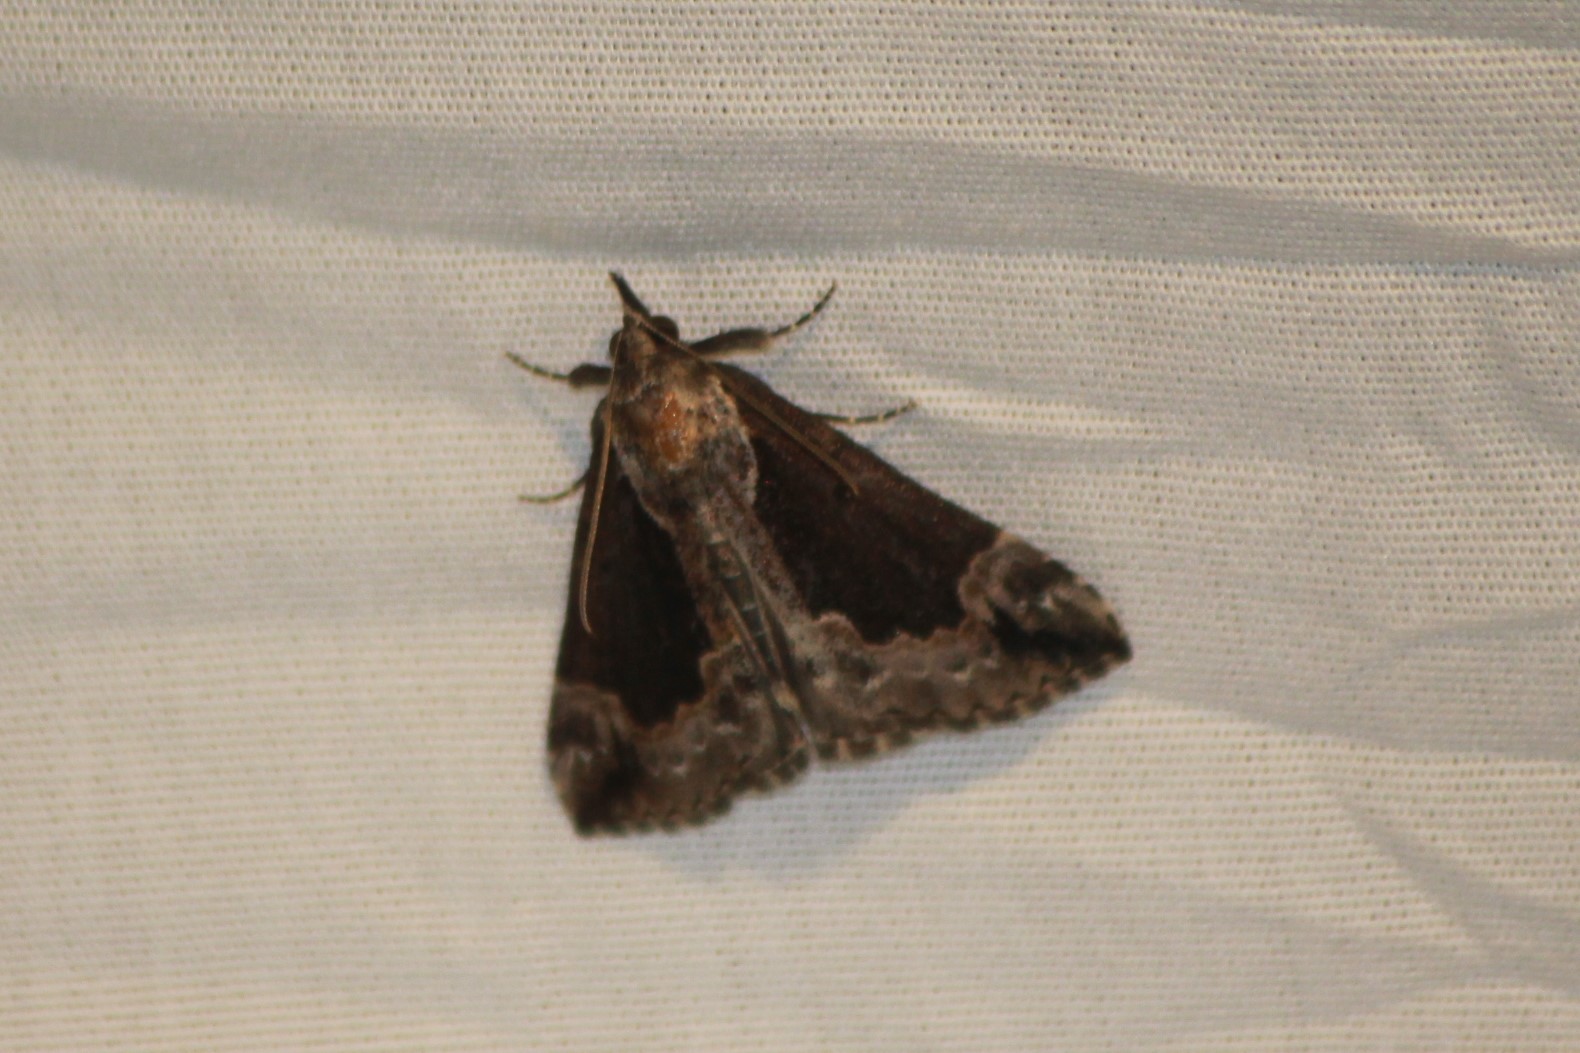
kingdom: Animalia
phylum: Arthropoda
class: Insecta
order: Lepidoptera
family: Erebidae
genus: Hypena
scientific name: Hypena baltimoralis
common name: Baltimore snout
